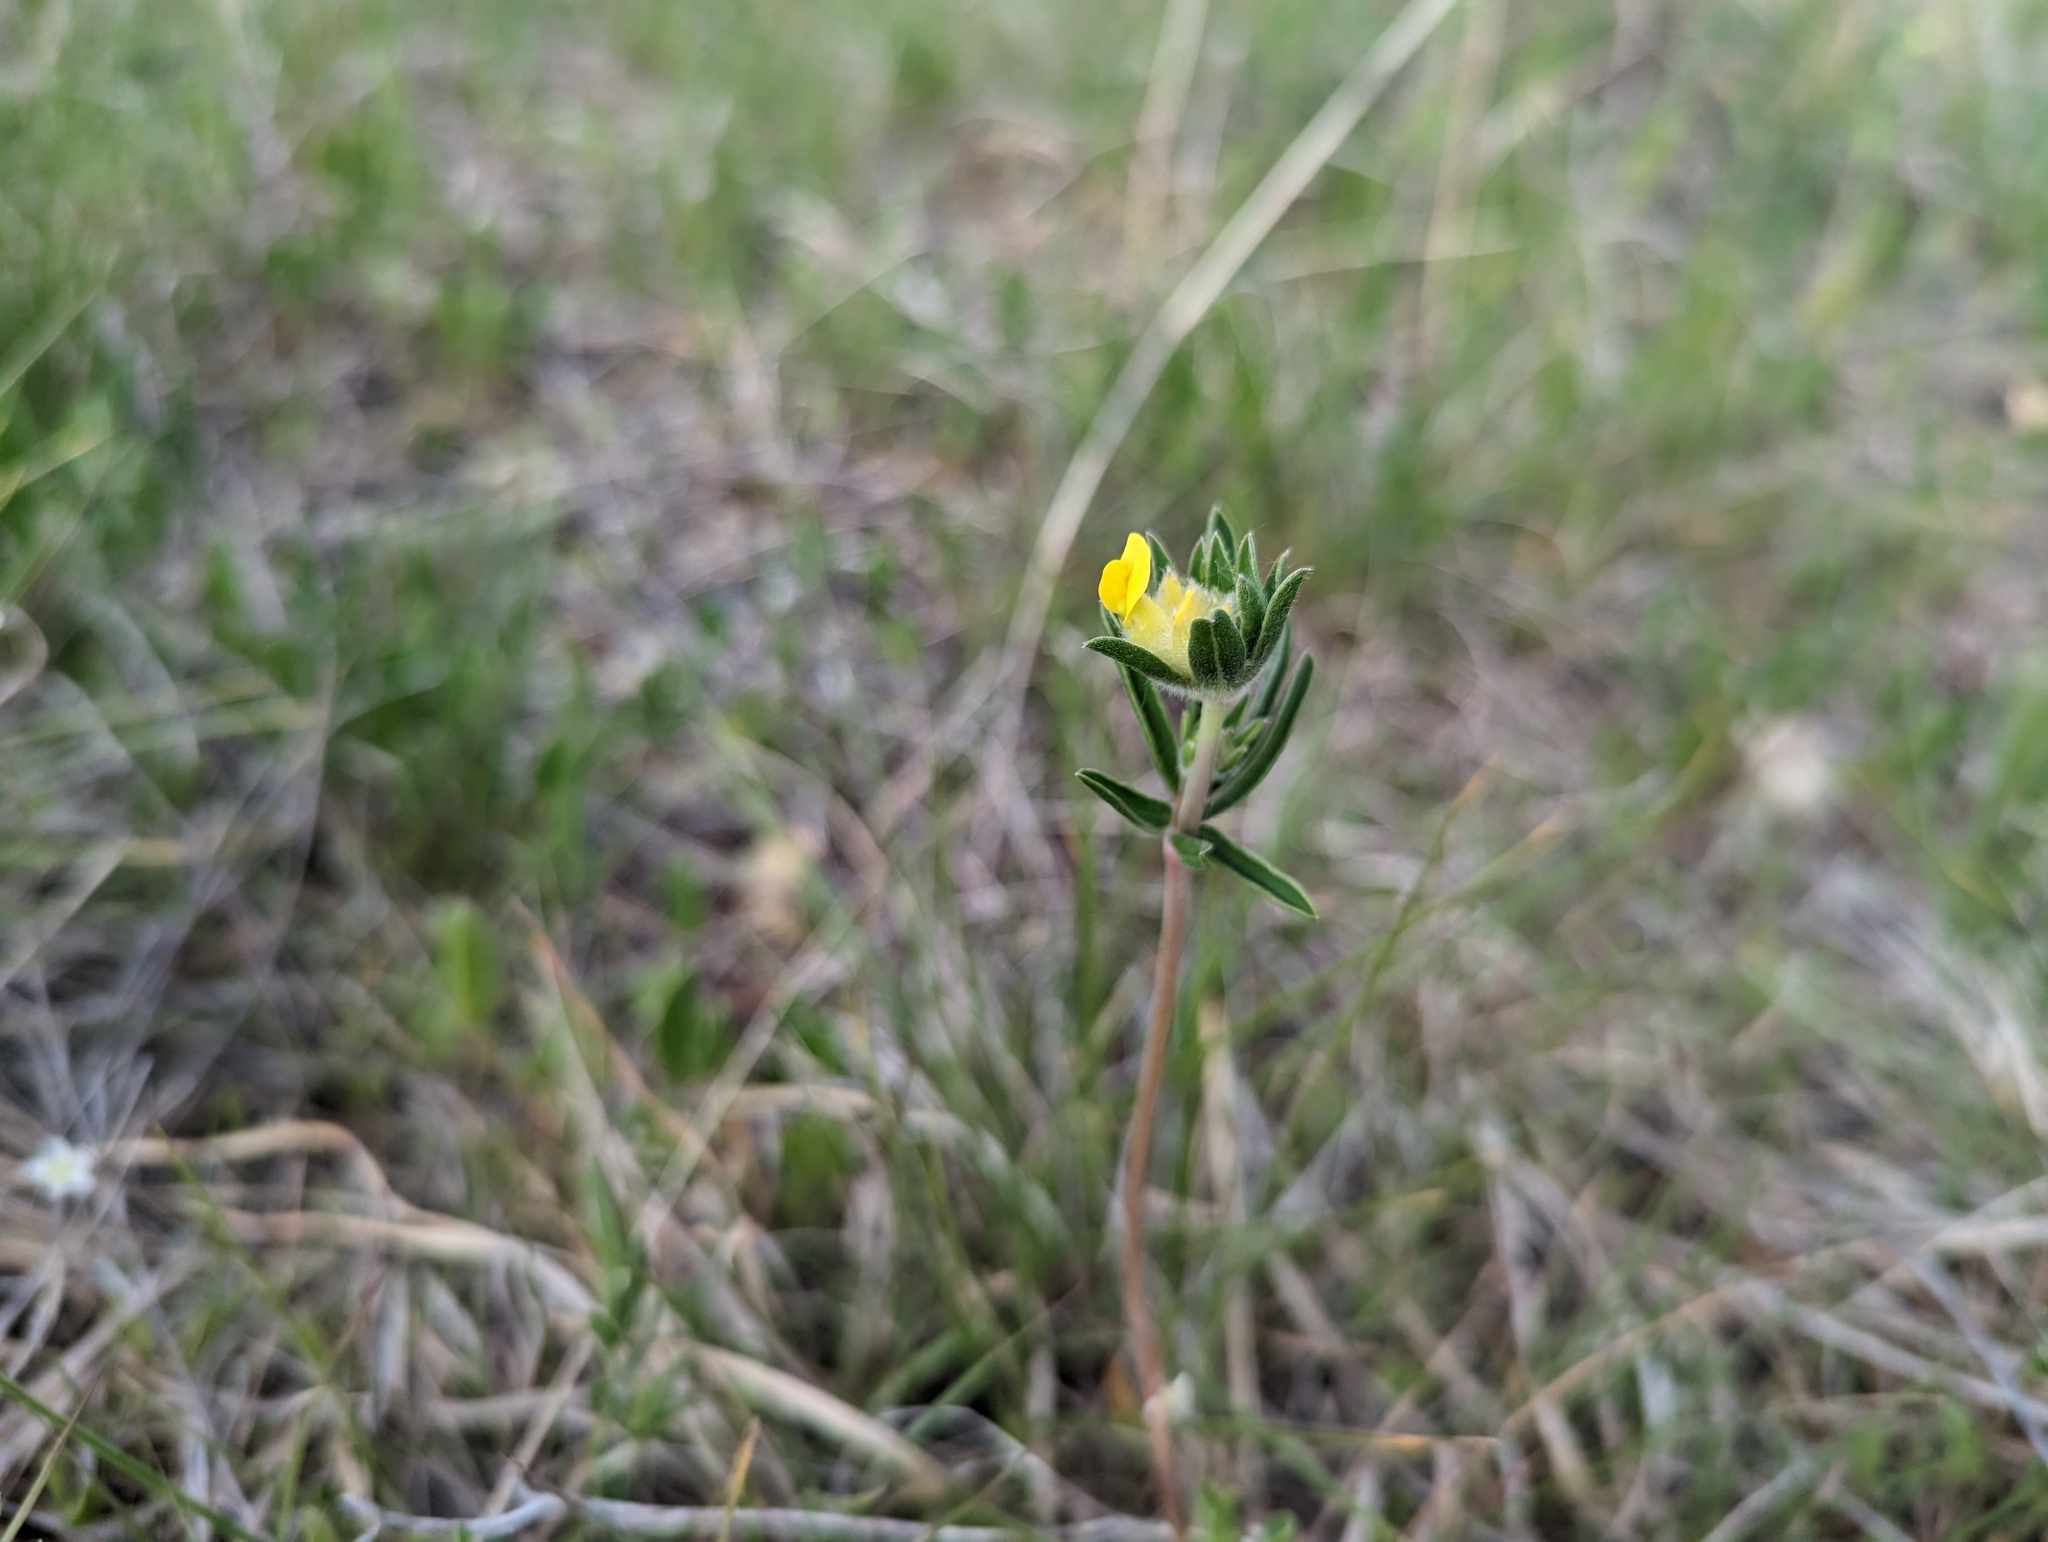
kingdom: Plantae
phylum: Tracheophyta
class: Magnoliopsida
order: Fabales
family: Fabaceae
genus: Anthyllis
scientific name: Anthyllis vulneraria
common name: Kidney vetch
